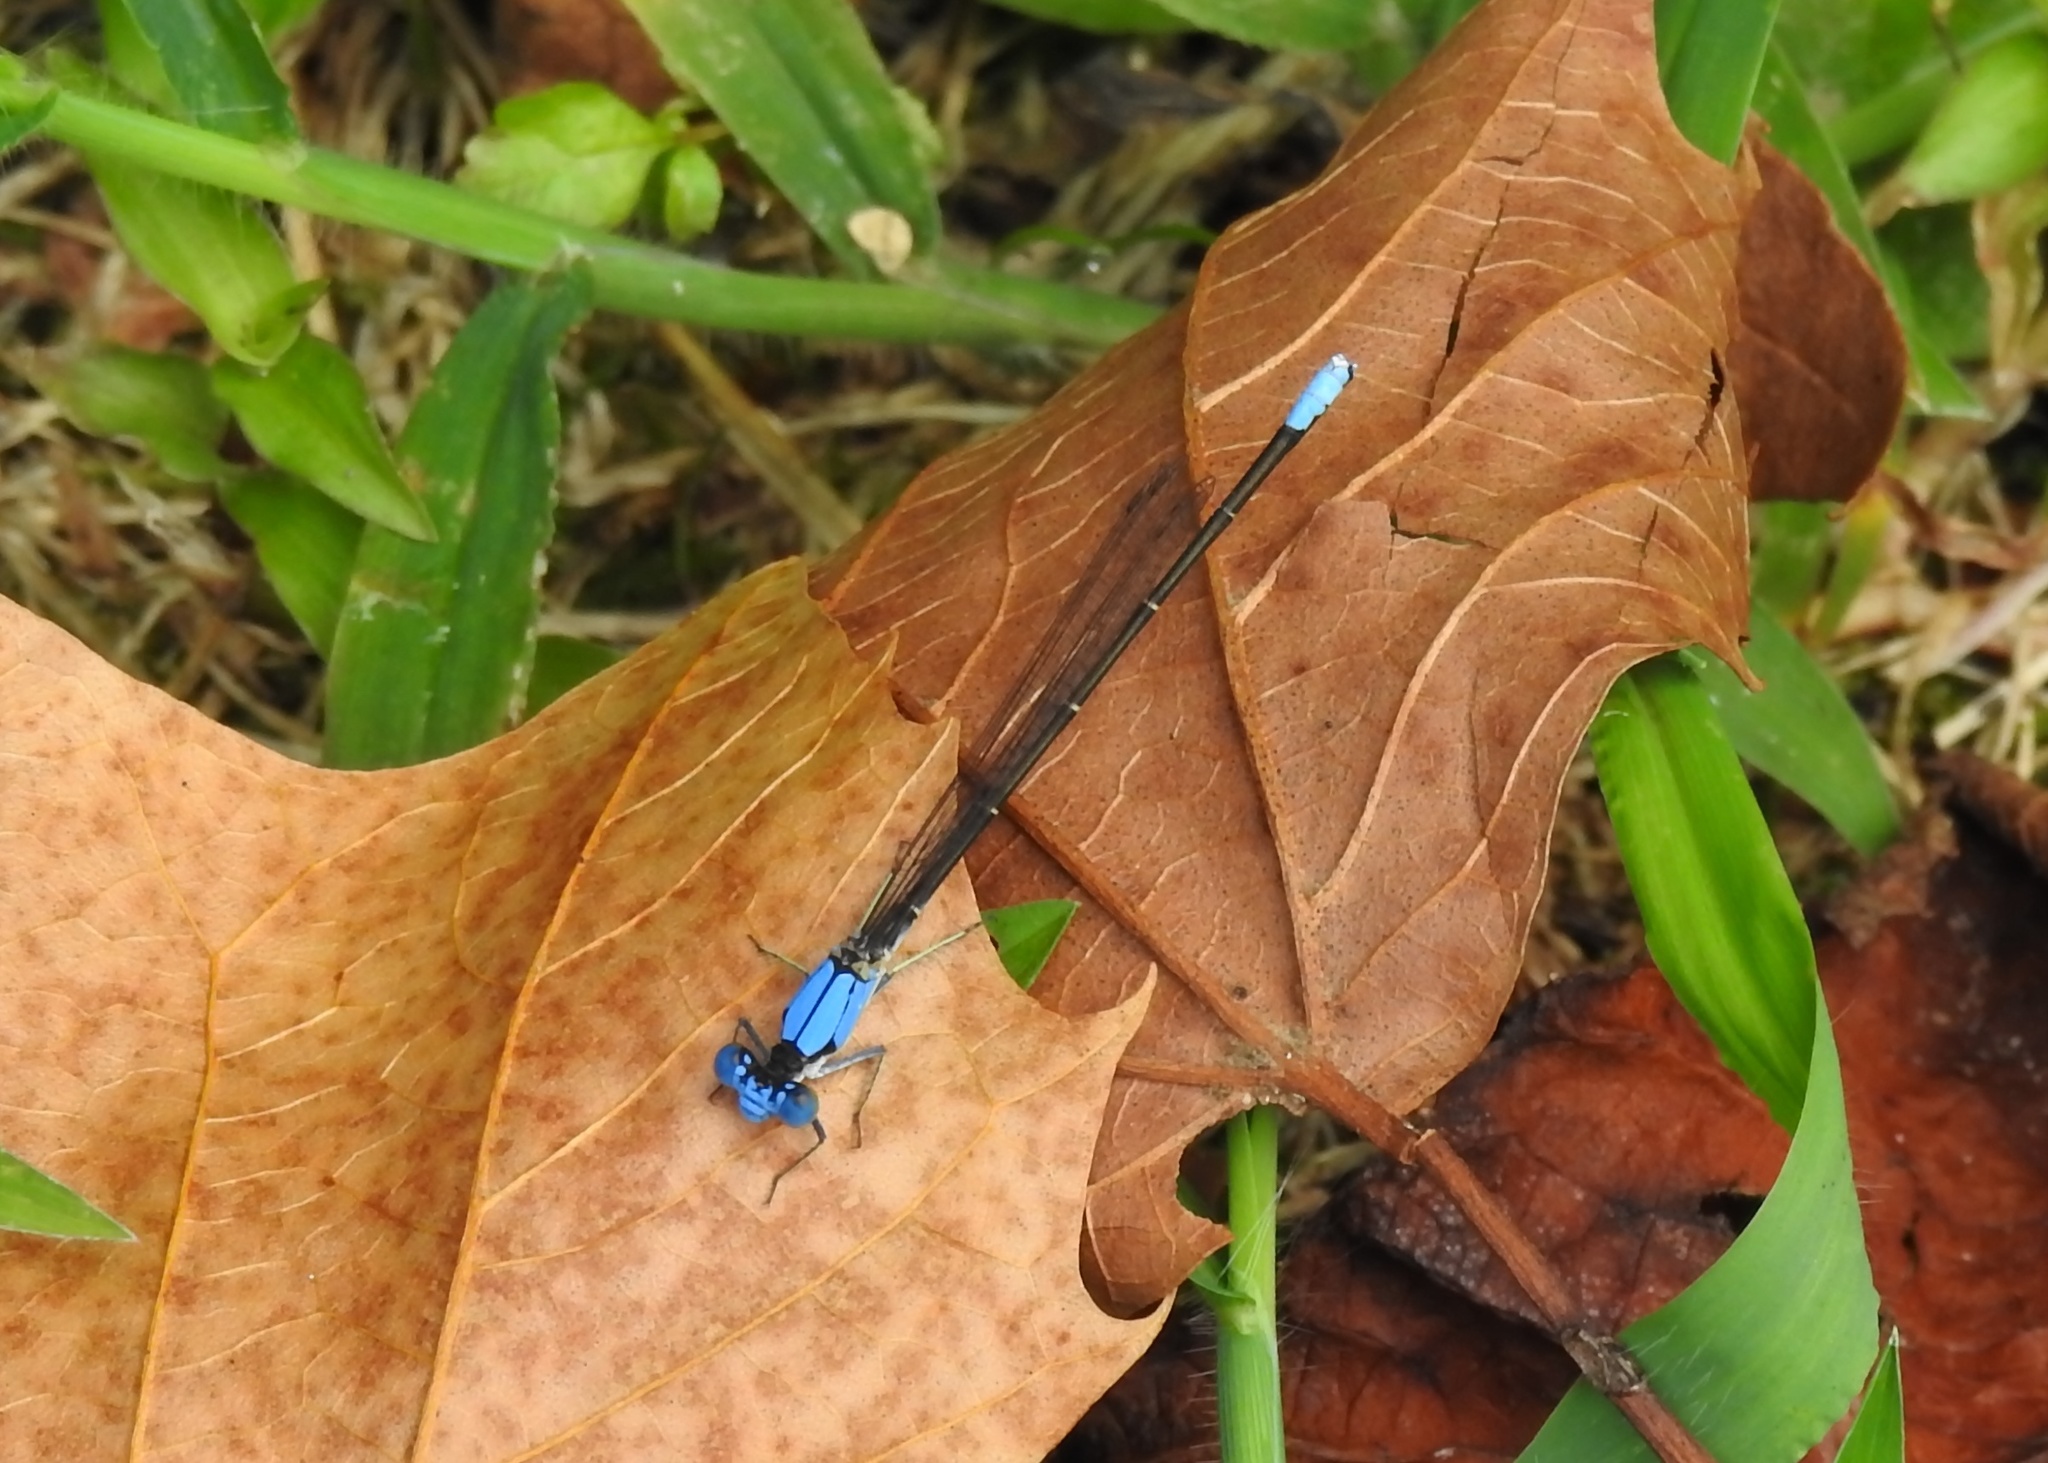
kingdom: Animalia
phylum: Arthropoda
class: Insecta
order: Odonata
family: Coenagrionidae
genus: Argia
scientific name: Argia apicalis
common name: Blue-fronted dancer
